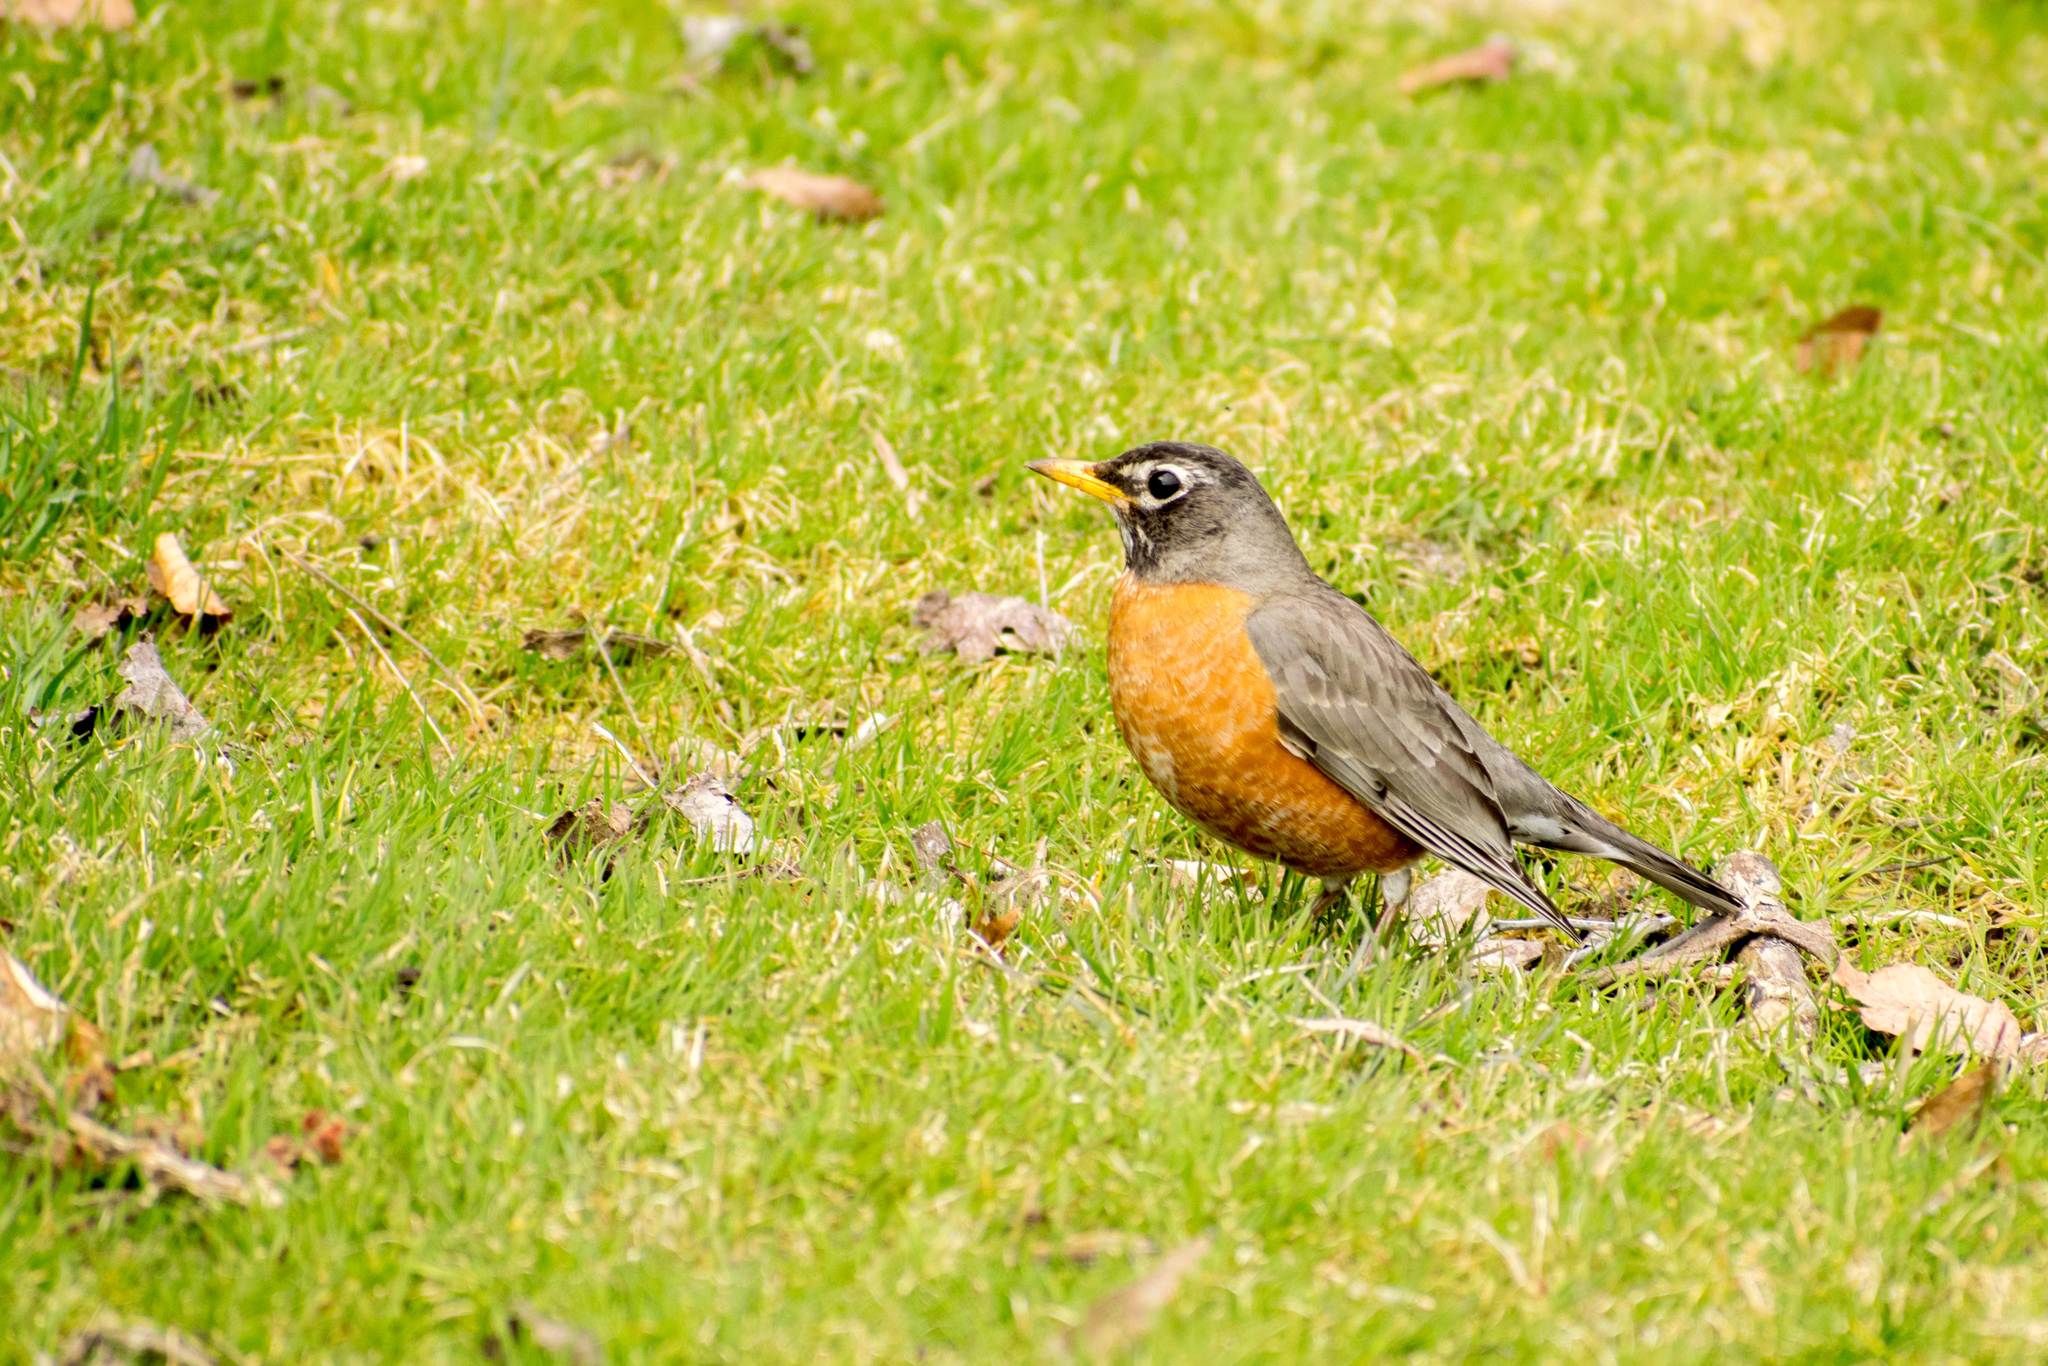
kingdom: Animalia
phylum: Chordata
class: Aves
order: Passeriformes
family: Turdidae
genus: Turdus
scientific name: Turdus migratorius
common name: American robin
